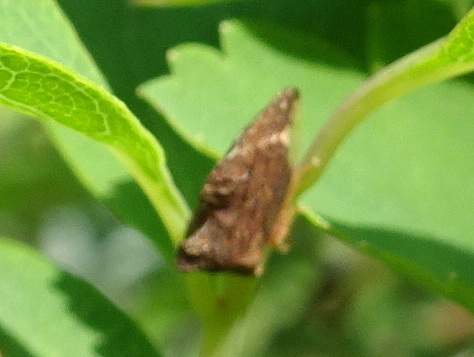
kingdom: Animalia
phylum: Arthropoda
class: Insecta
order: Hemiptera
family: Membracidae
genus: Entylia
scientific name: Entylia carinata
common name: Keeled treehopper
